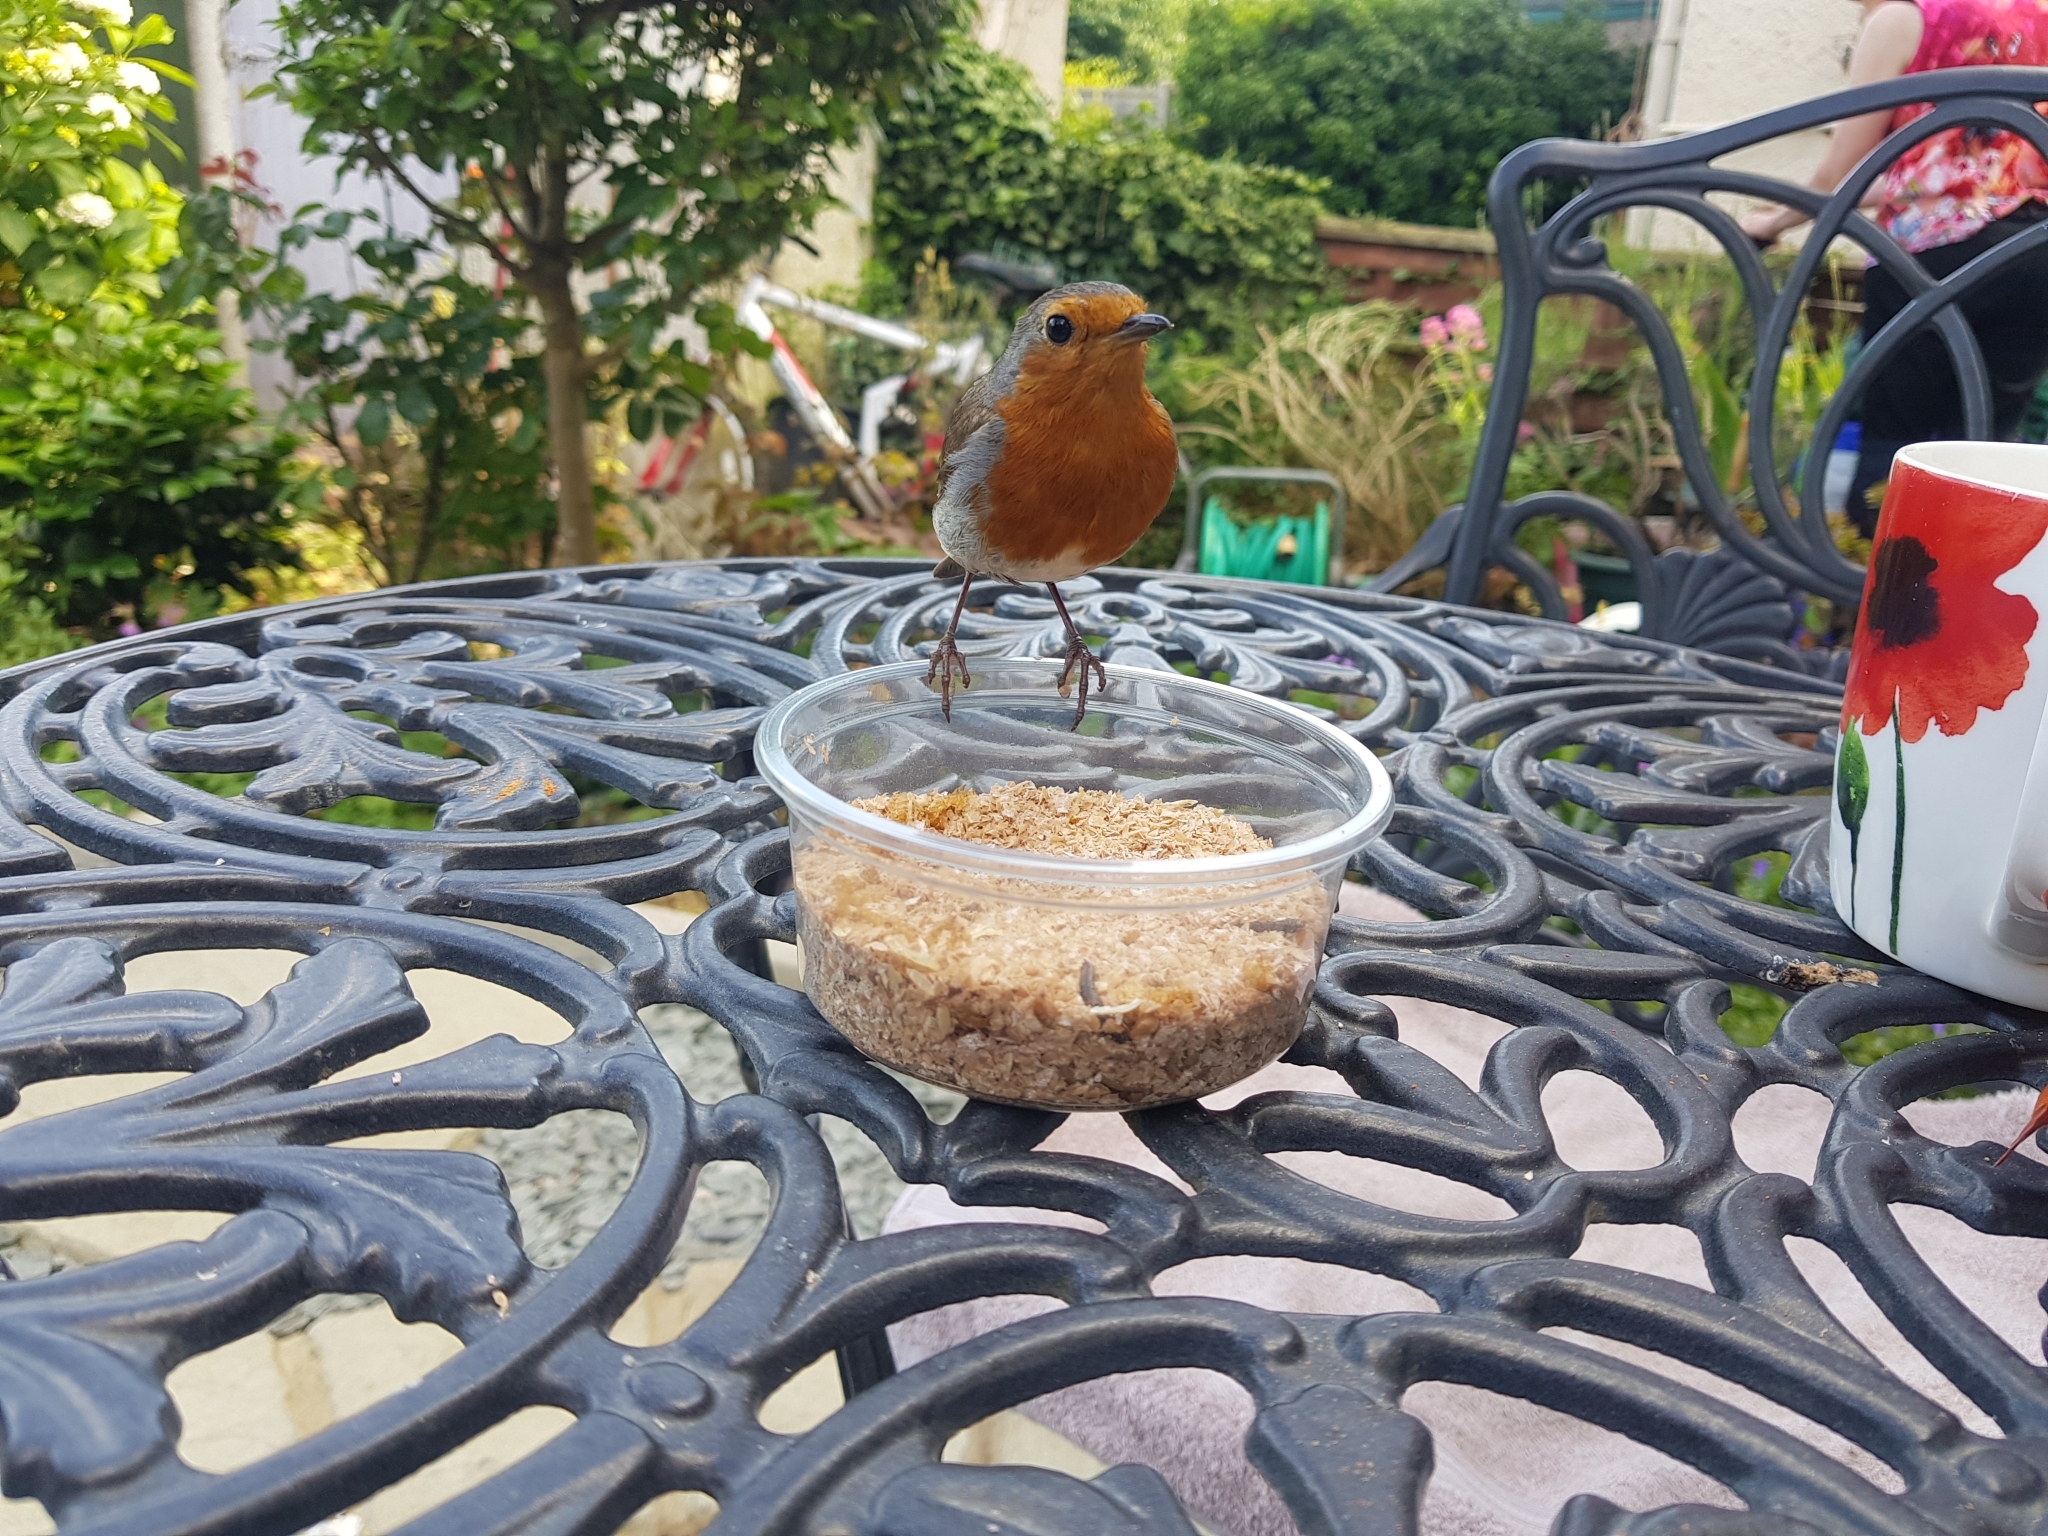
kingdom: Animalia
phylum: Chordata
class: Aves
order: Passeriformes
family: Muscicapidae
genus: Erithacus
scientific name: Erithacus rubecula
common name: European robin
